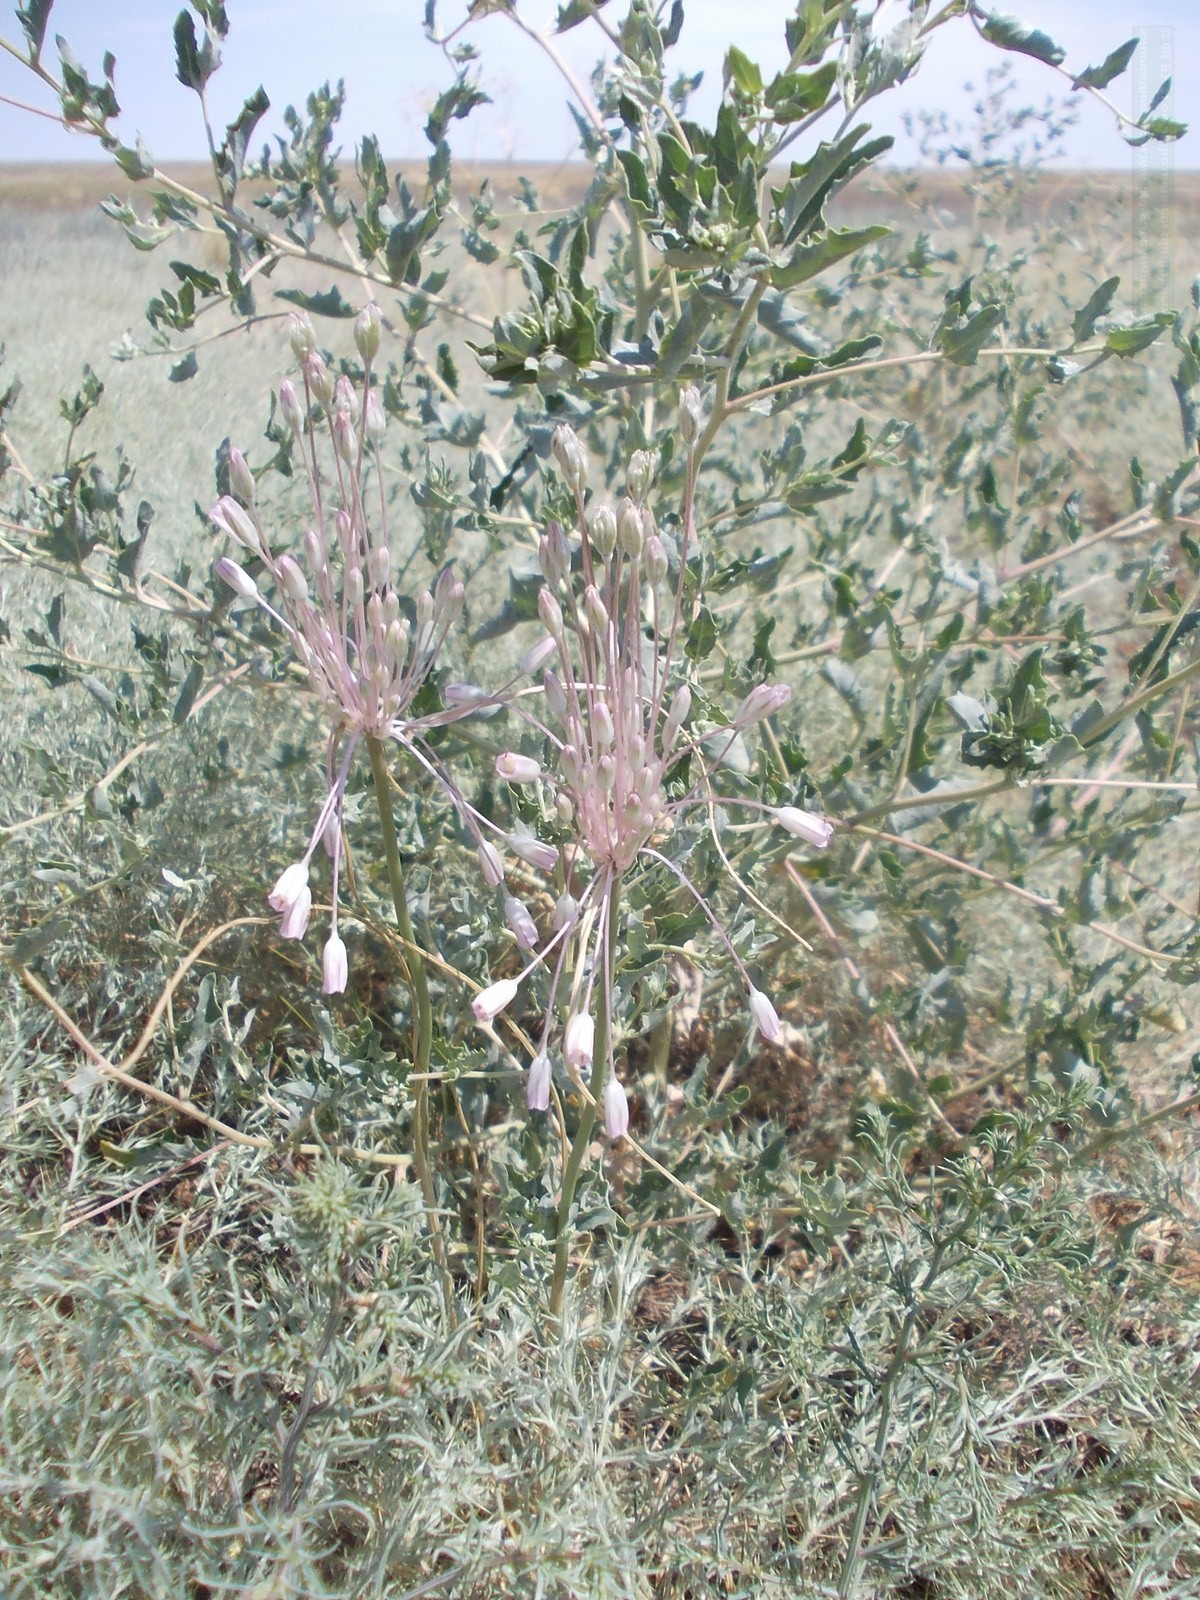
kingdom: Plantae
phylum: Tracheophyta
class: Liliopsida
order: Asparagales
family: Amaryllidaceae
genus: Allium
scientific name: Allium praescissum
